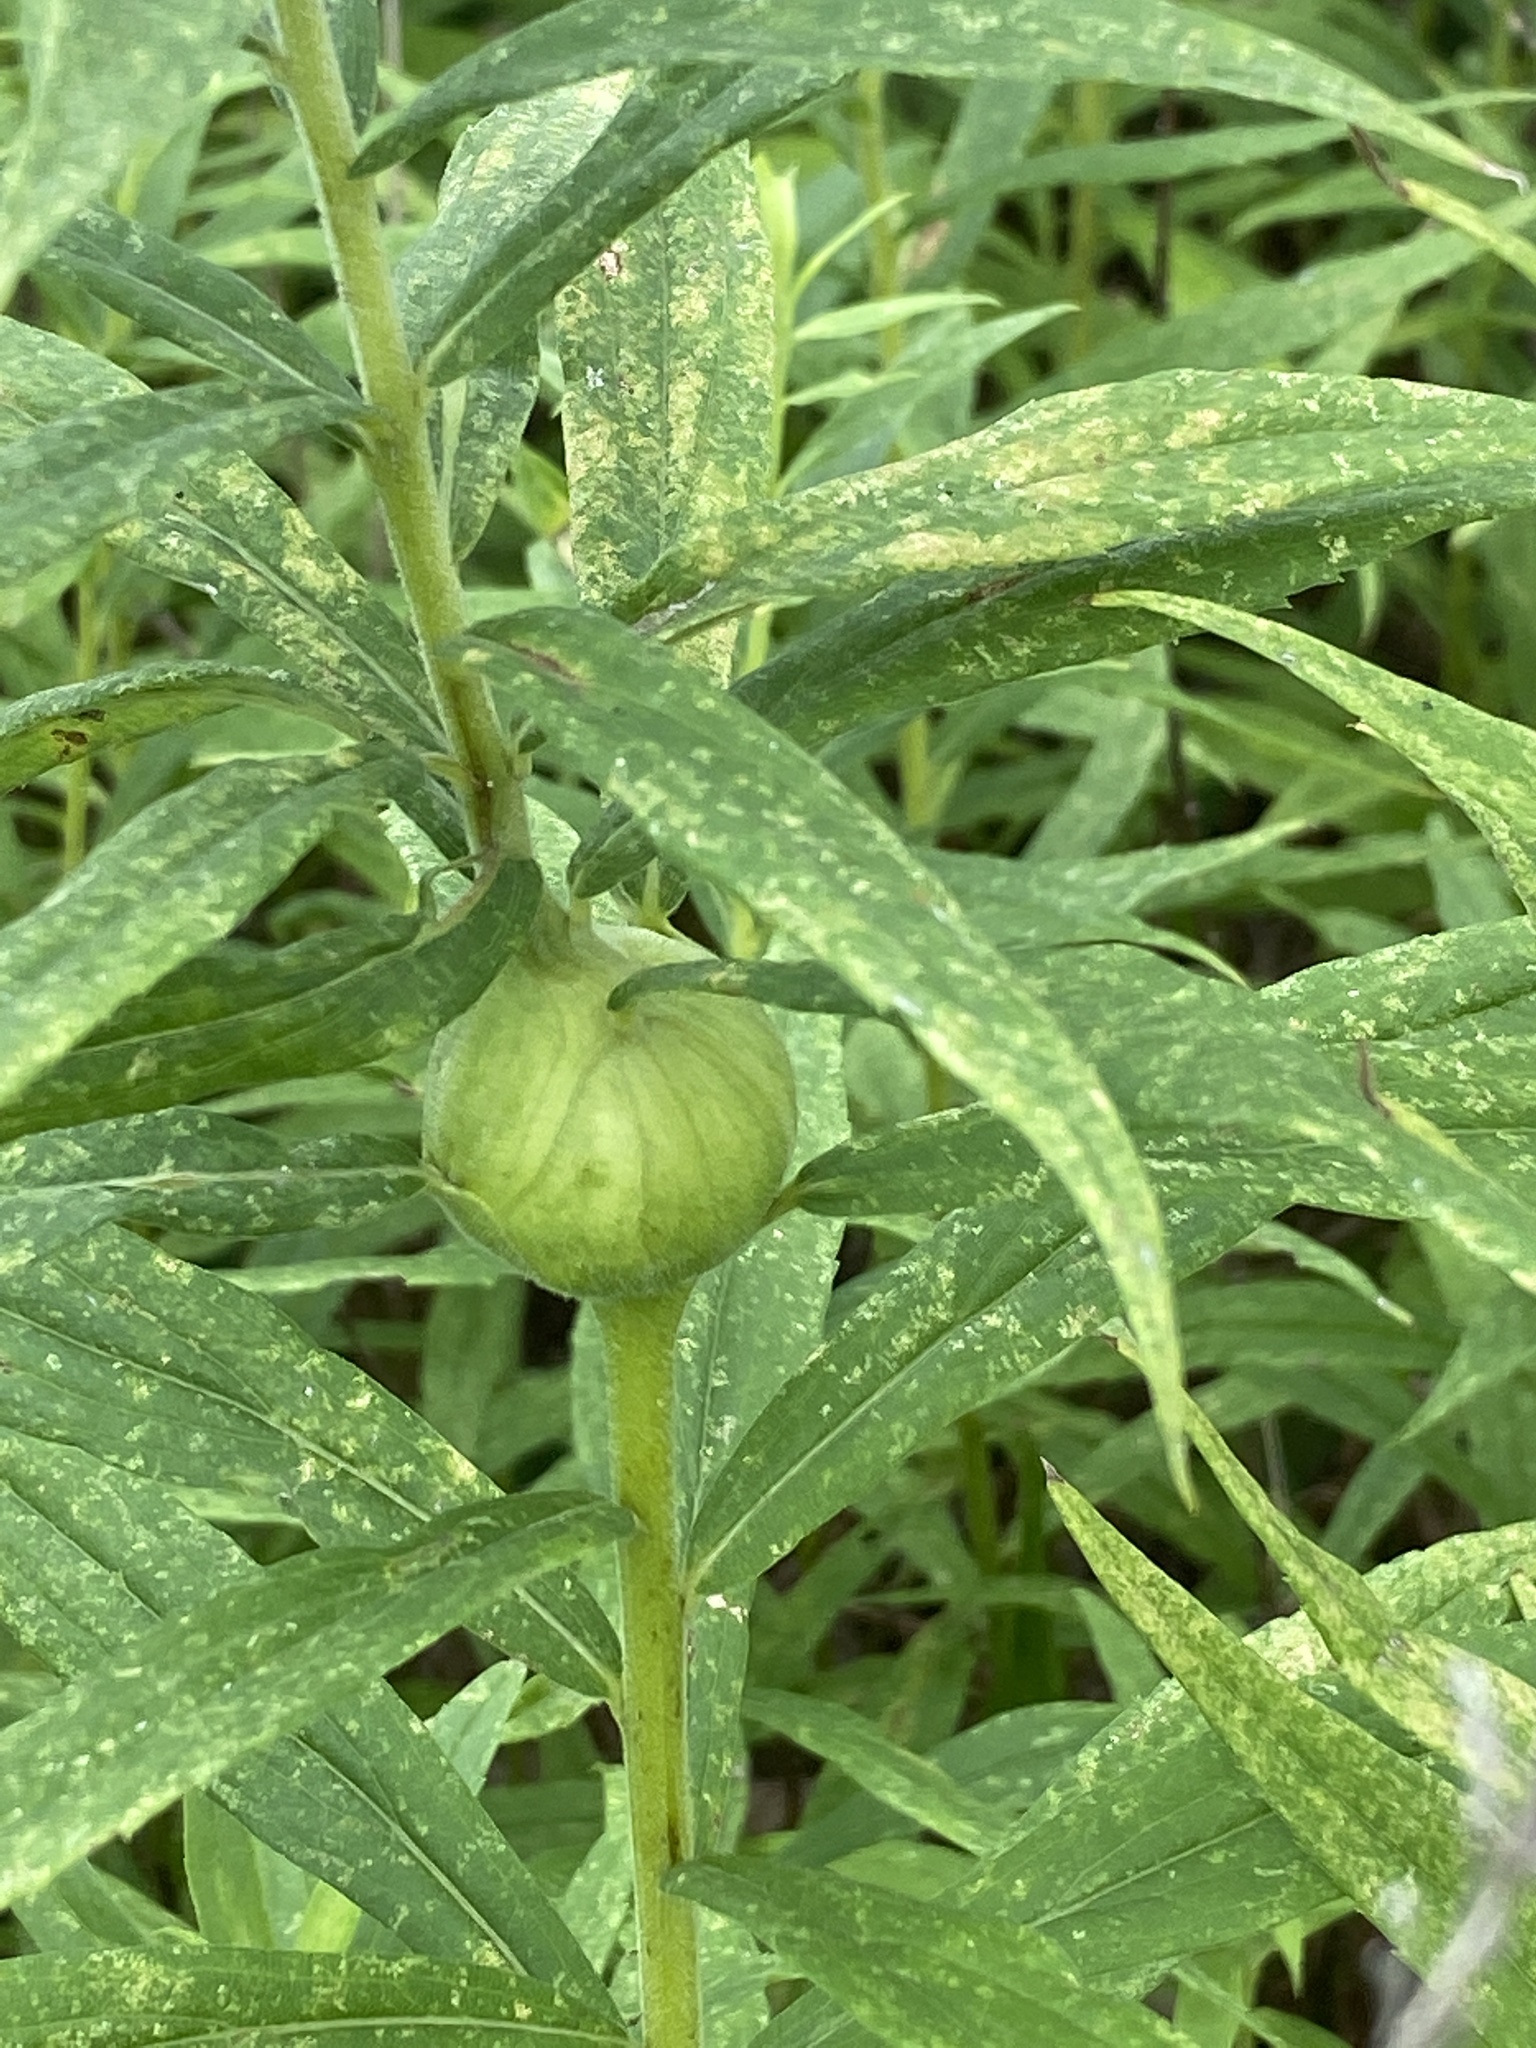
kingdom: Animalia
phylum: Arthropoda
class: Insecta
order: Diptera
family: Tephritidae
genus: Eurosta
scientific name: Eurosta solidaginis
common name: Goldenrod gall fly
